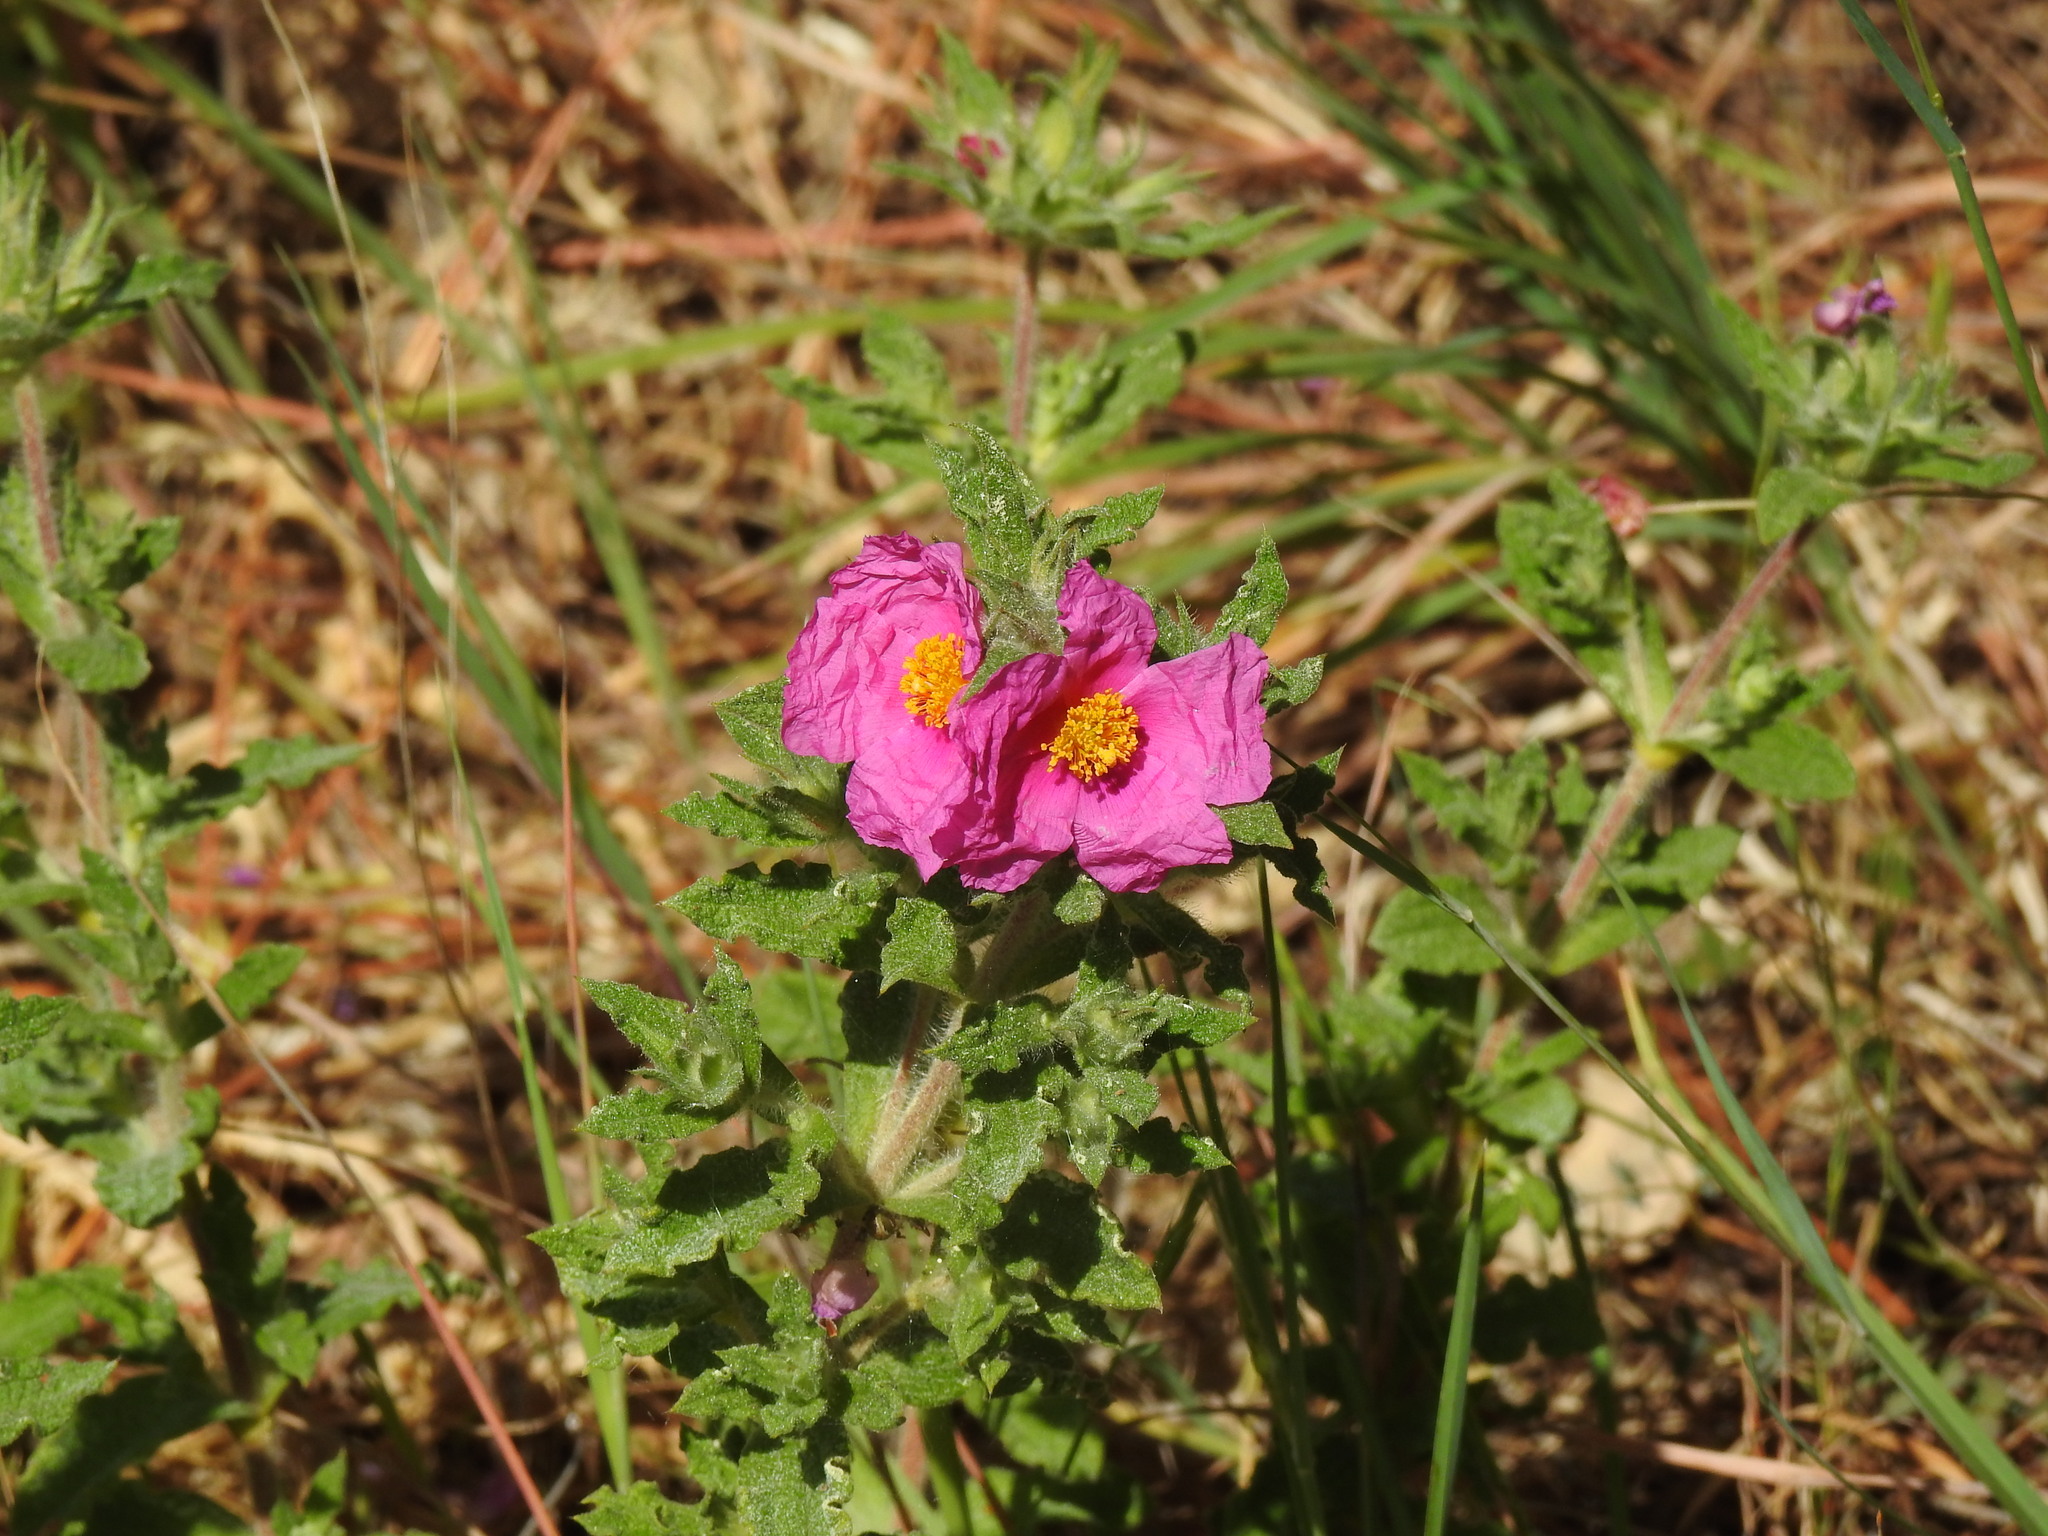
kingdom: Plantae
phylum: Tracheophyta
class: Magnoliopsida
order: Malvales
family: Cistaceae
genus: Cistus
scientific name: Cistus crispus
